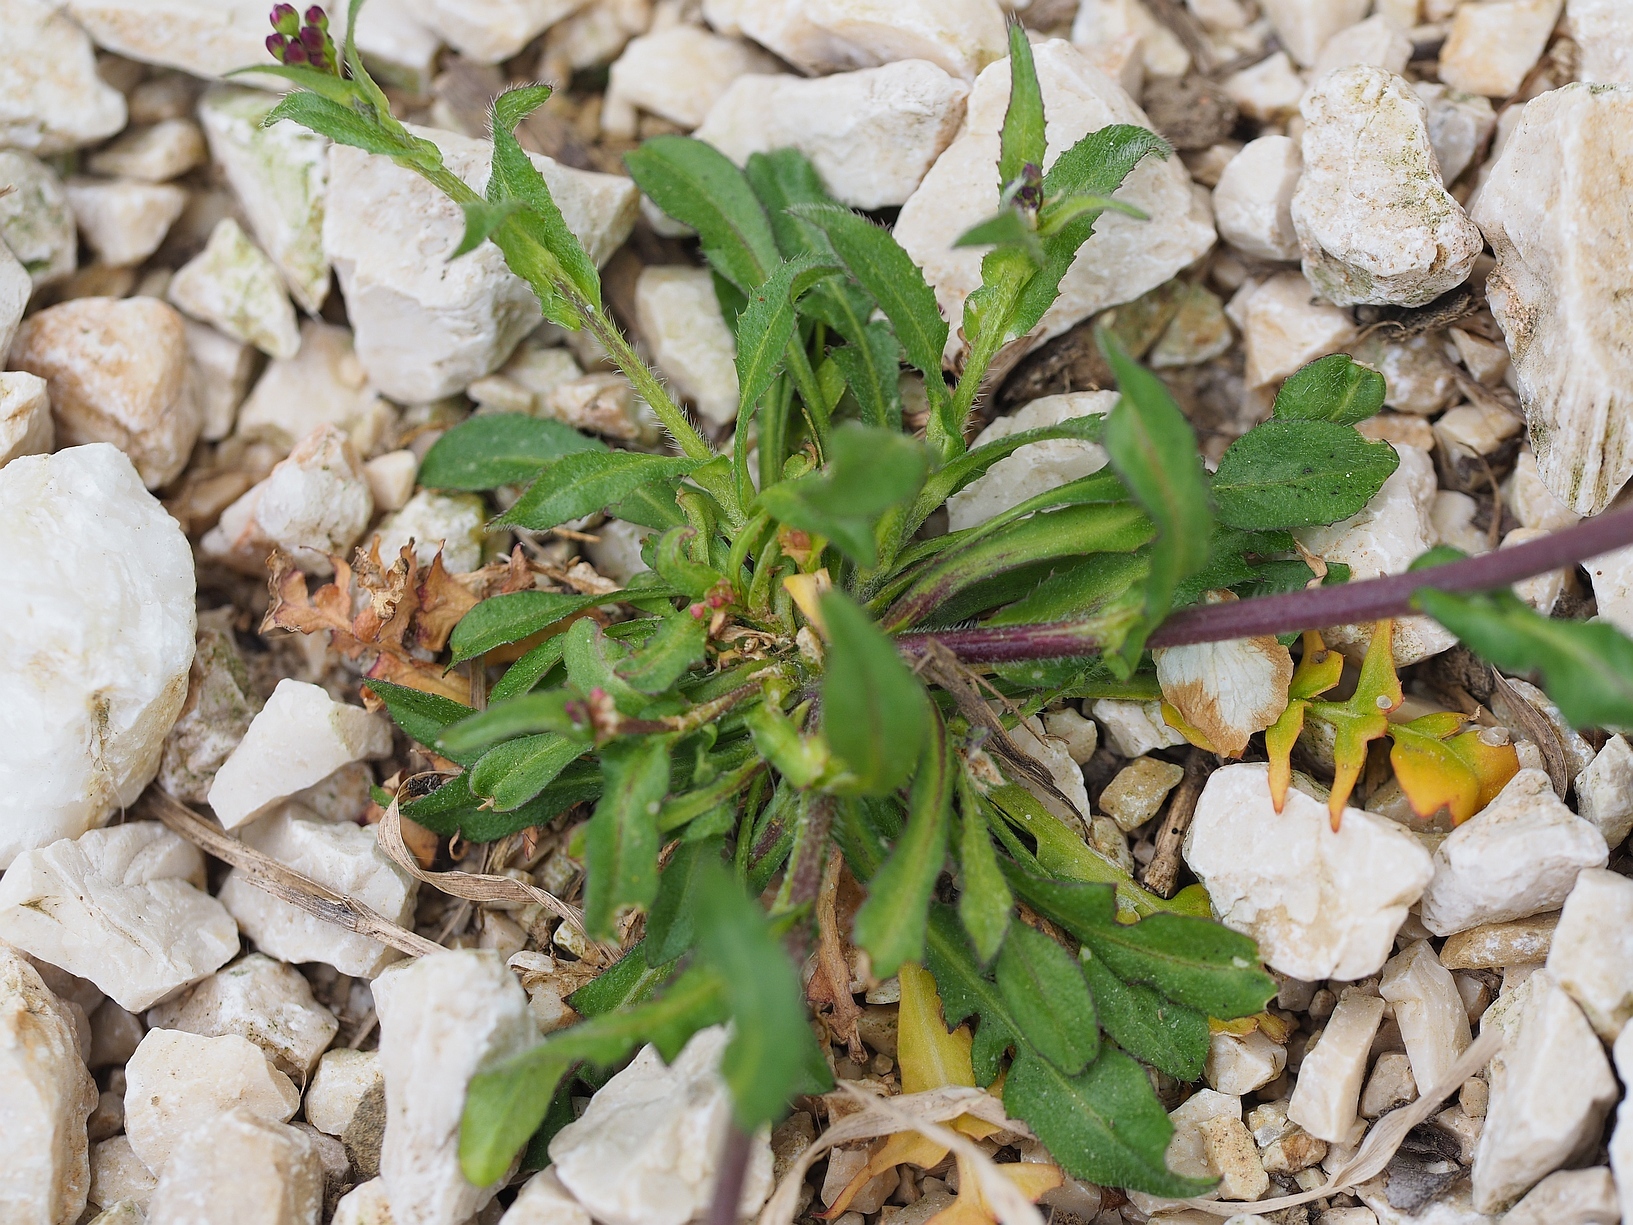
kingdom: Plantae
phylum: Tracheophyta
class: Magnoliopsida
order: Brassicales
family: Brassicaceae
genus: Capsella
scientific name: Capsella bursa-pastoris
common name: Shepherd's purse
